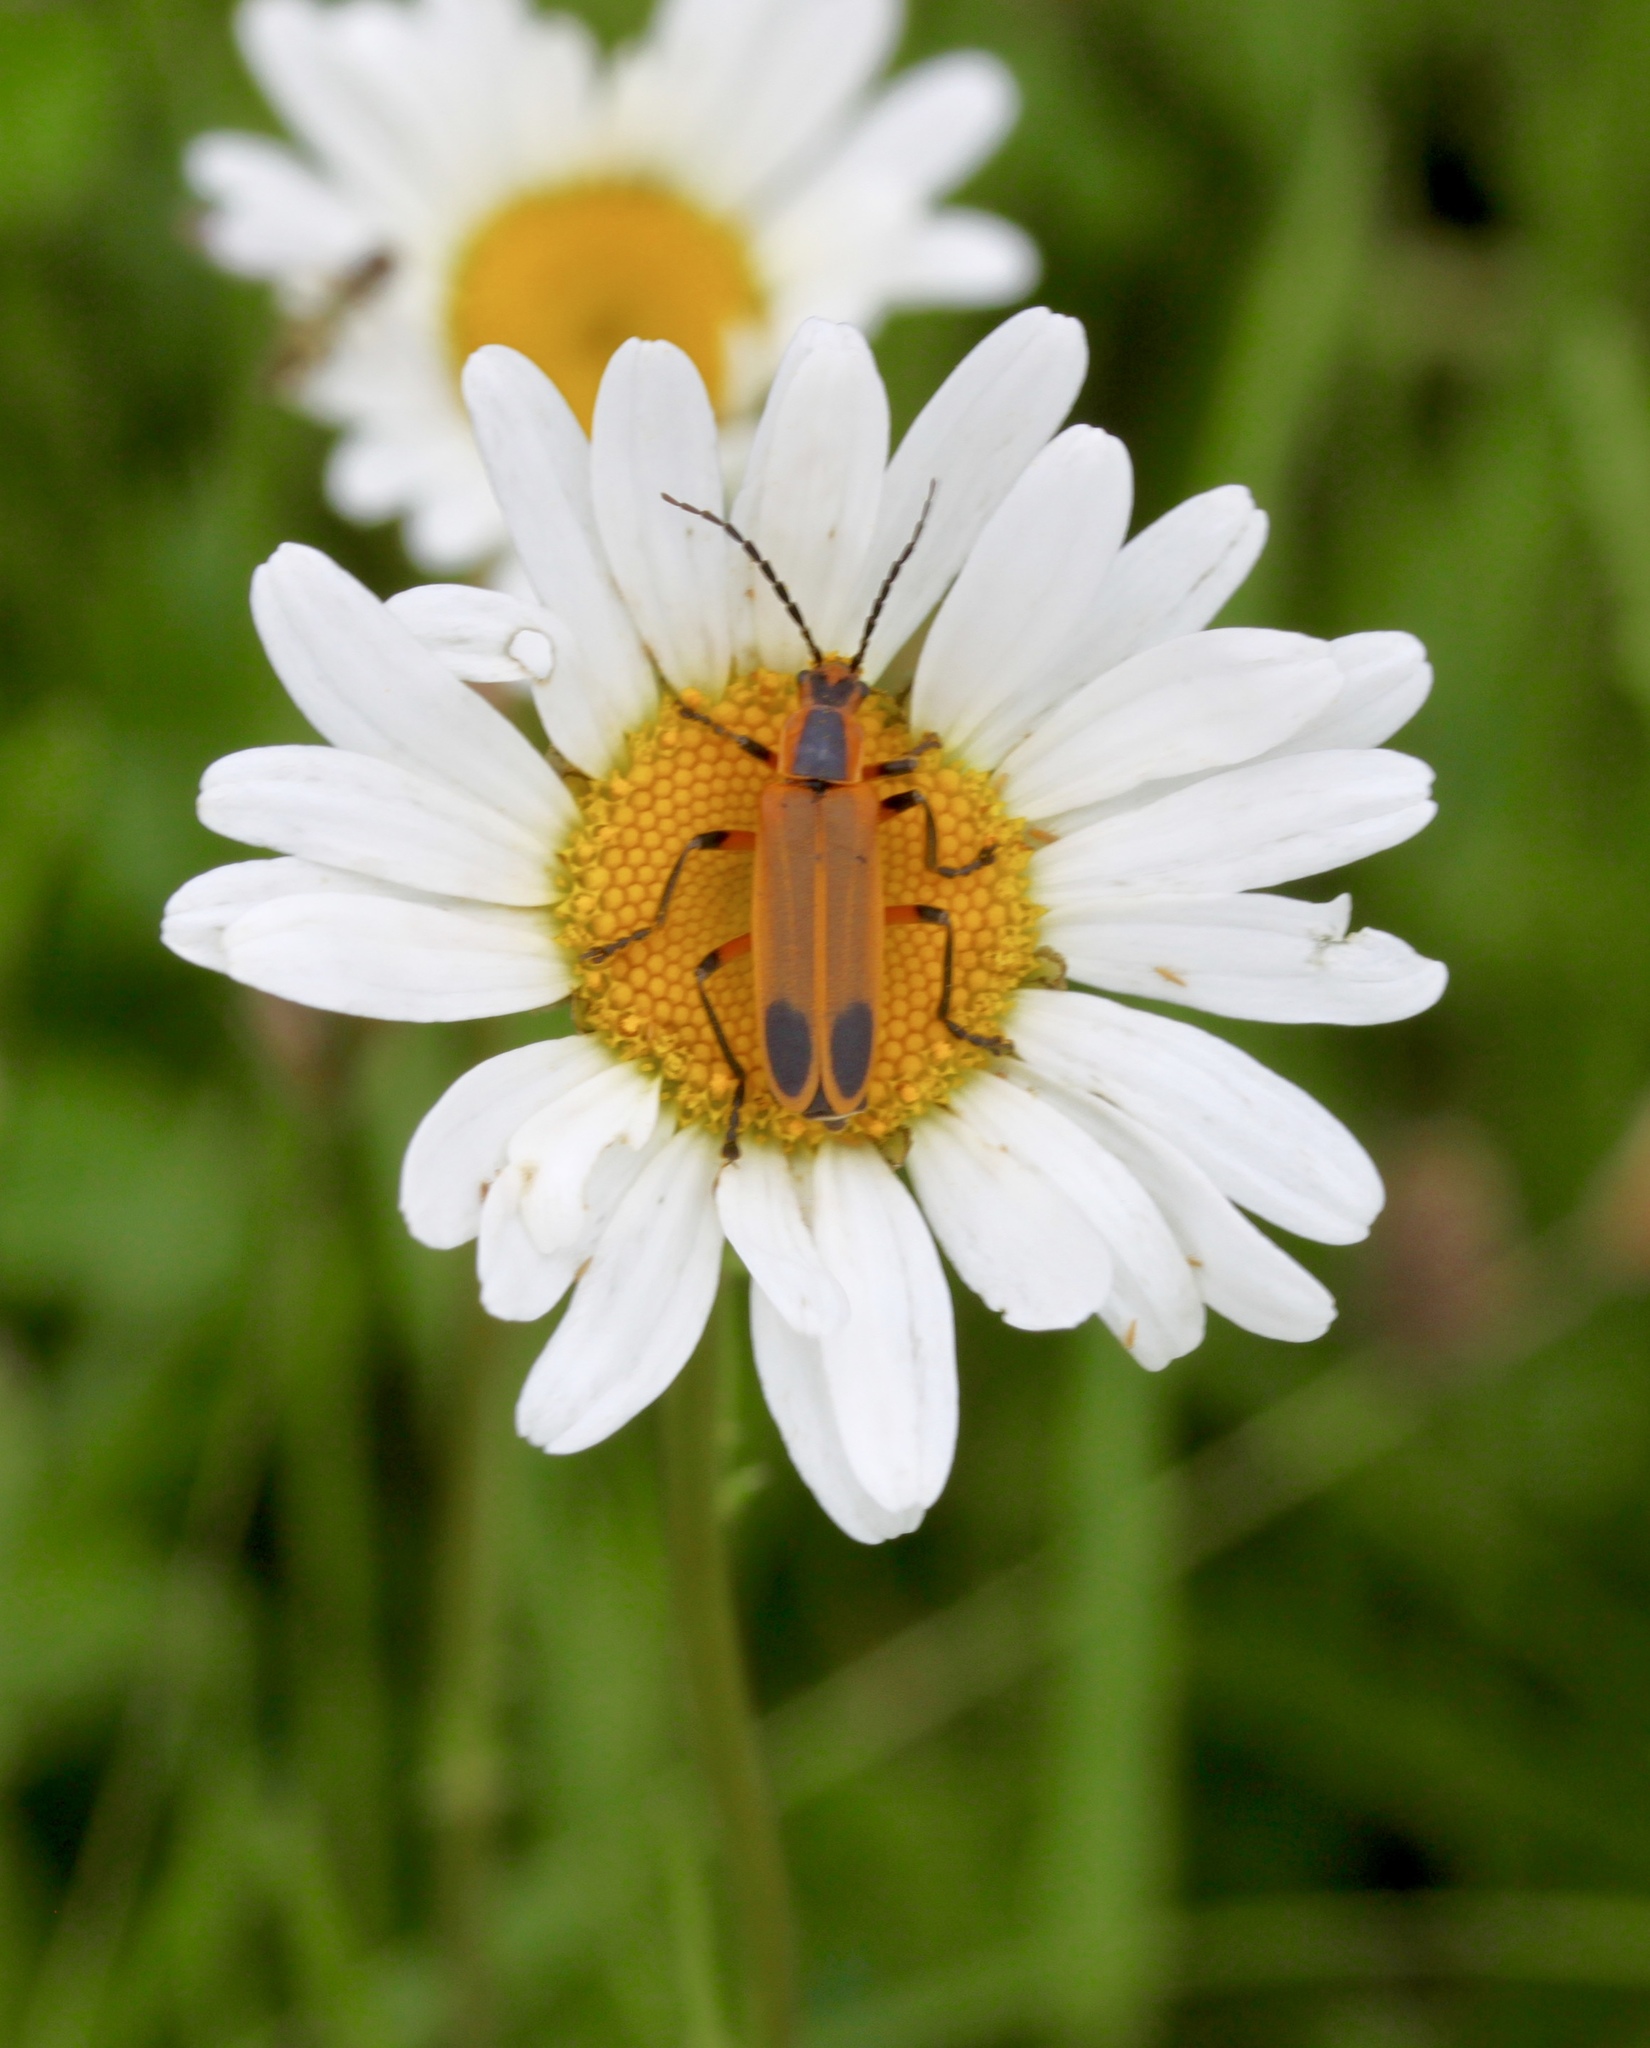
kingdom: Animalia
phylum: Arthropoda
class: Insecta
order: Coleoptera
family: Cantharidae
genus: Chauliognathus
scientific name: Chauliognathus marginatus
